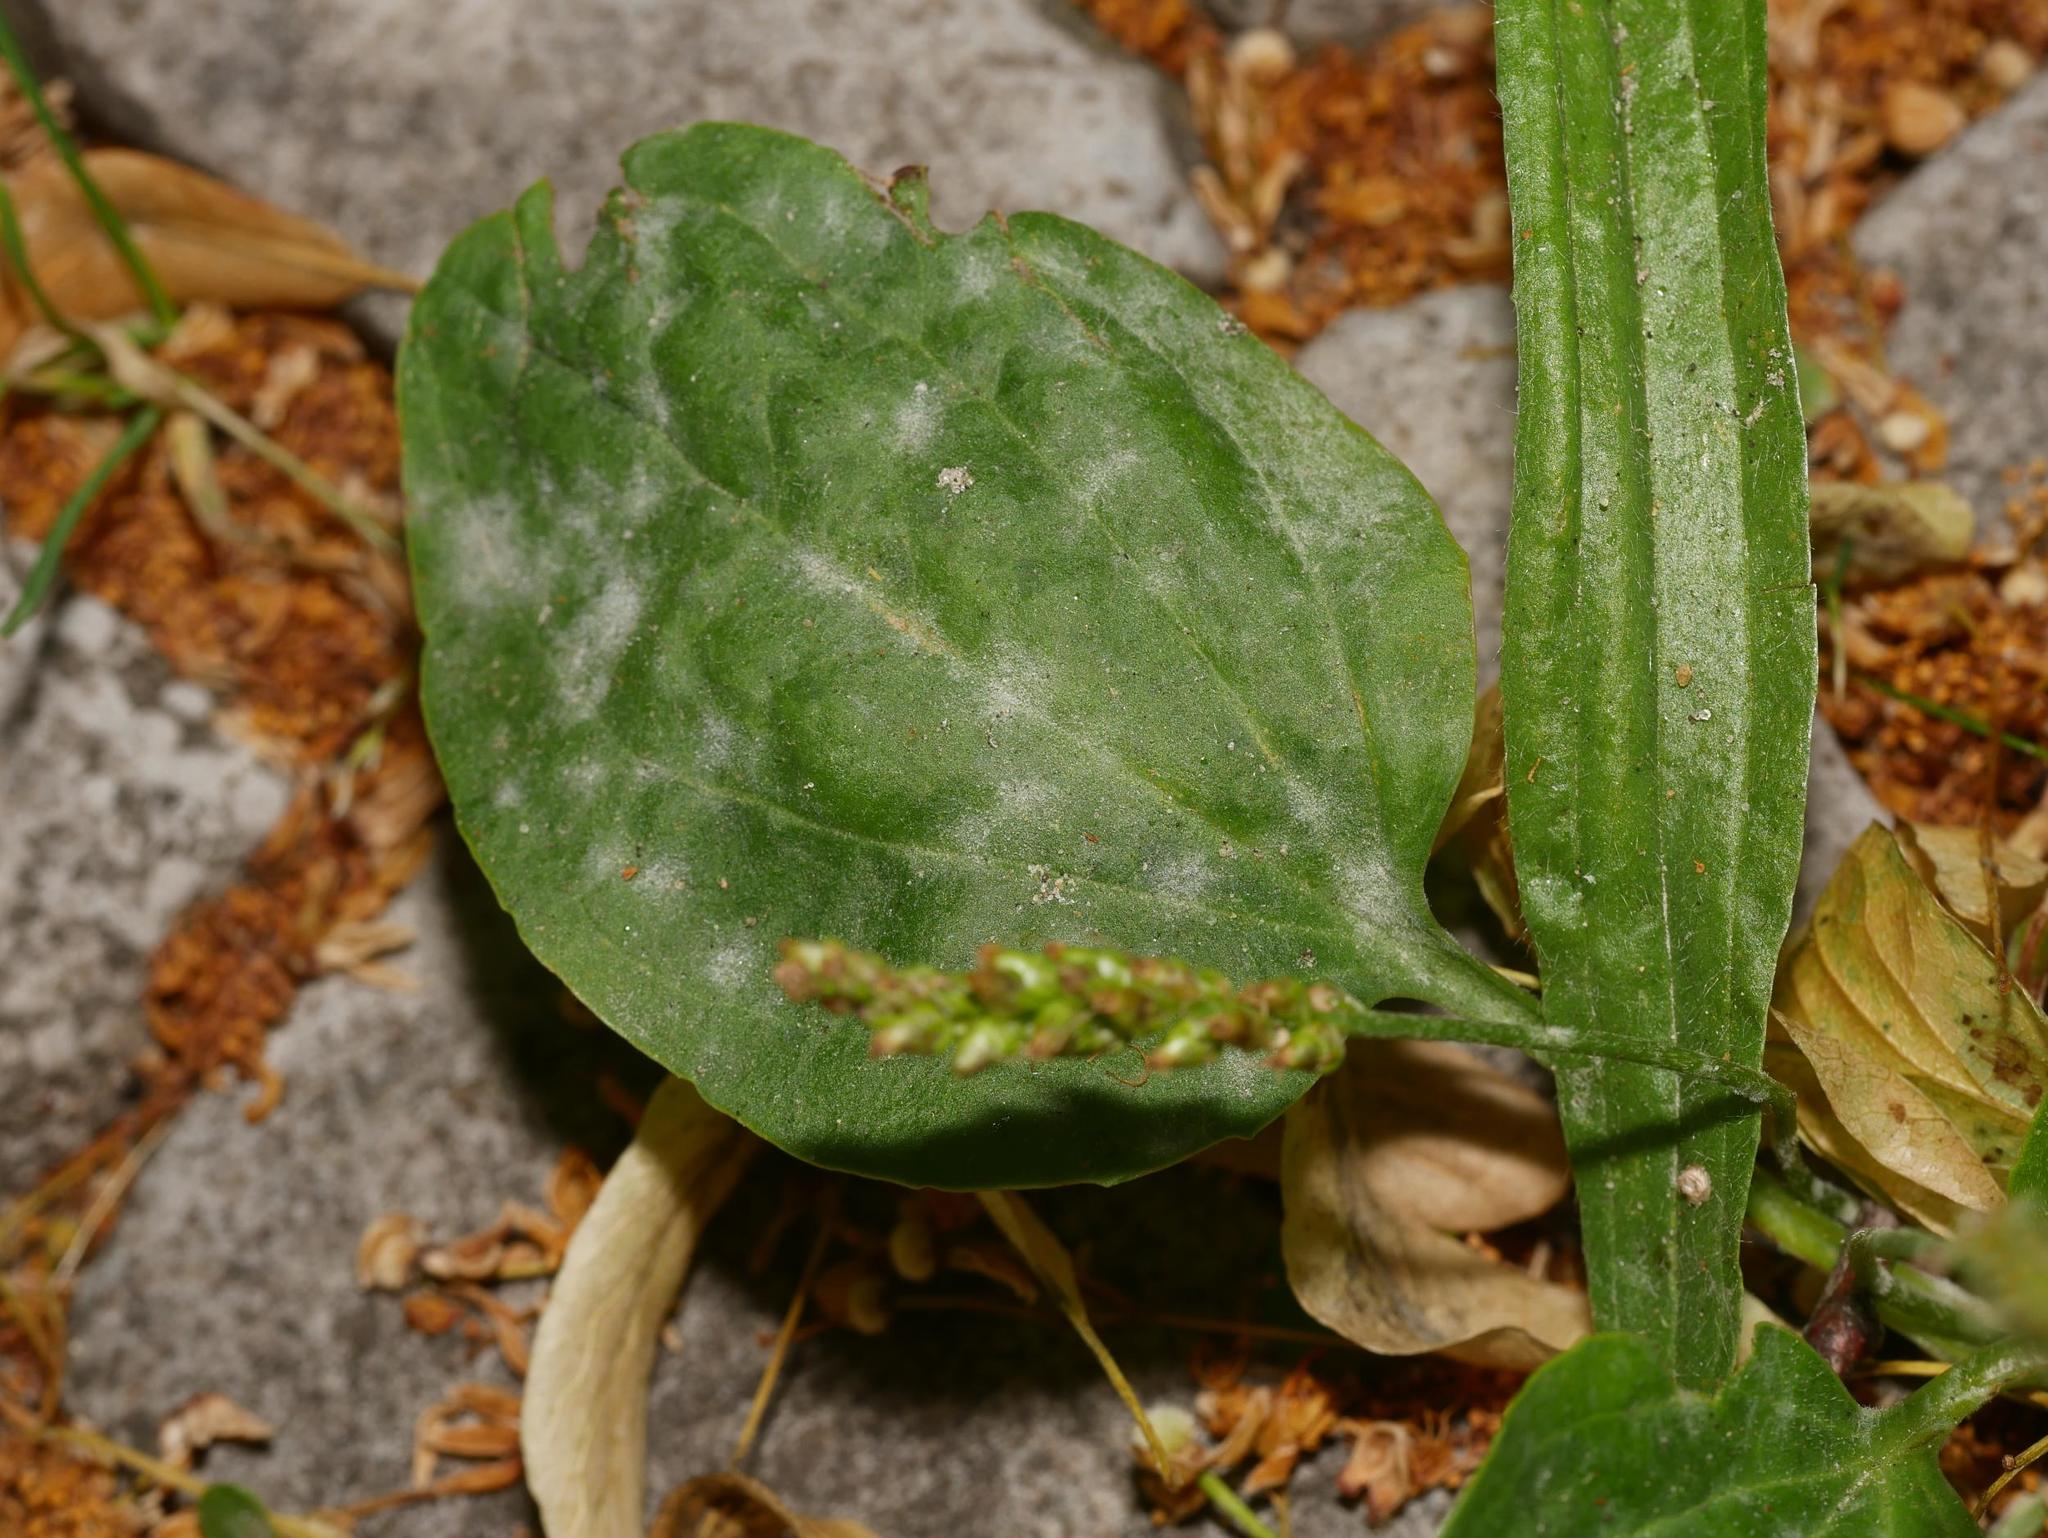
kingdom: Plantae
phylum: Tracheophyta
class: Magnoliopsida
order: Lamiales
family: Plantaginaceae
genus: Plantago
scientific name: Plantago major
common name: Common plantain
